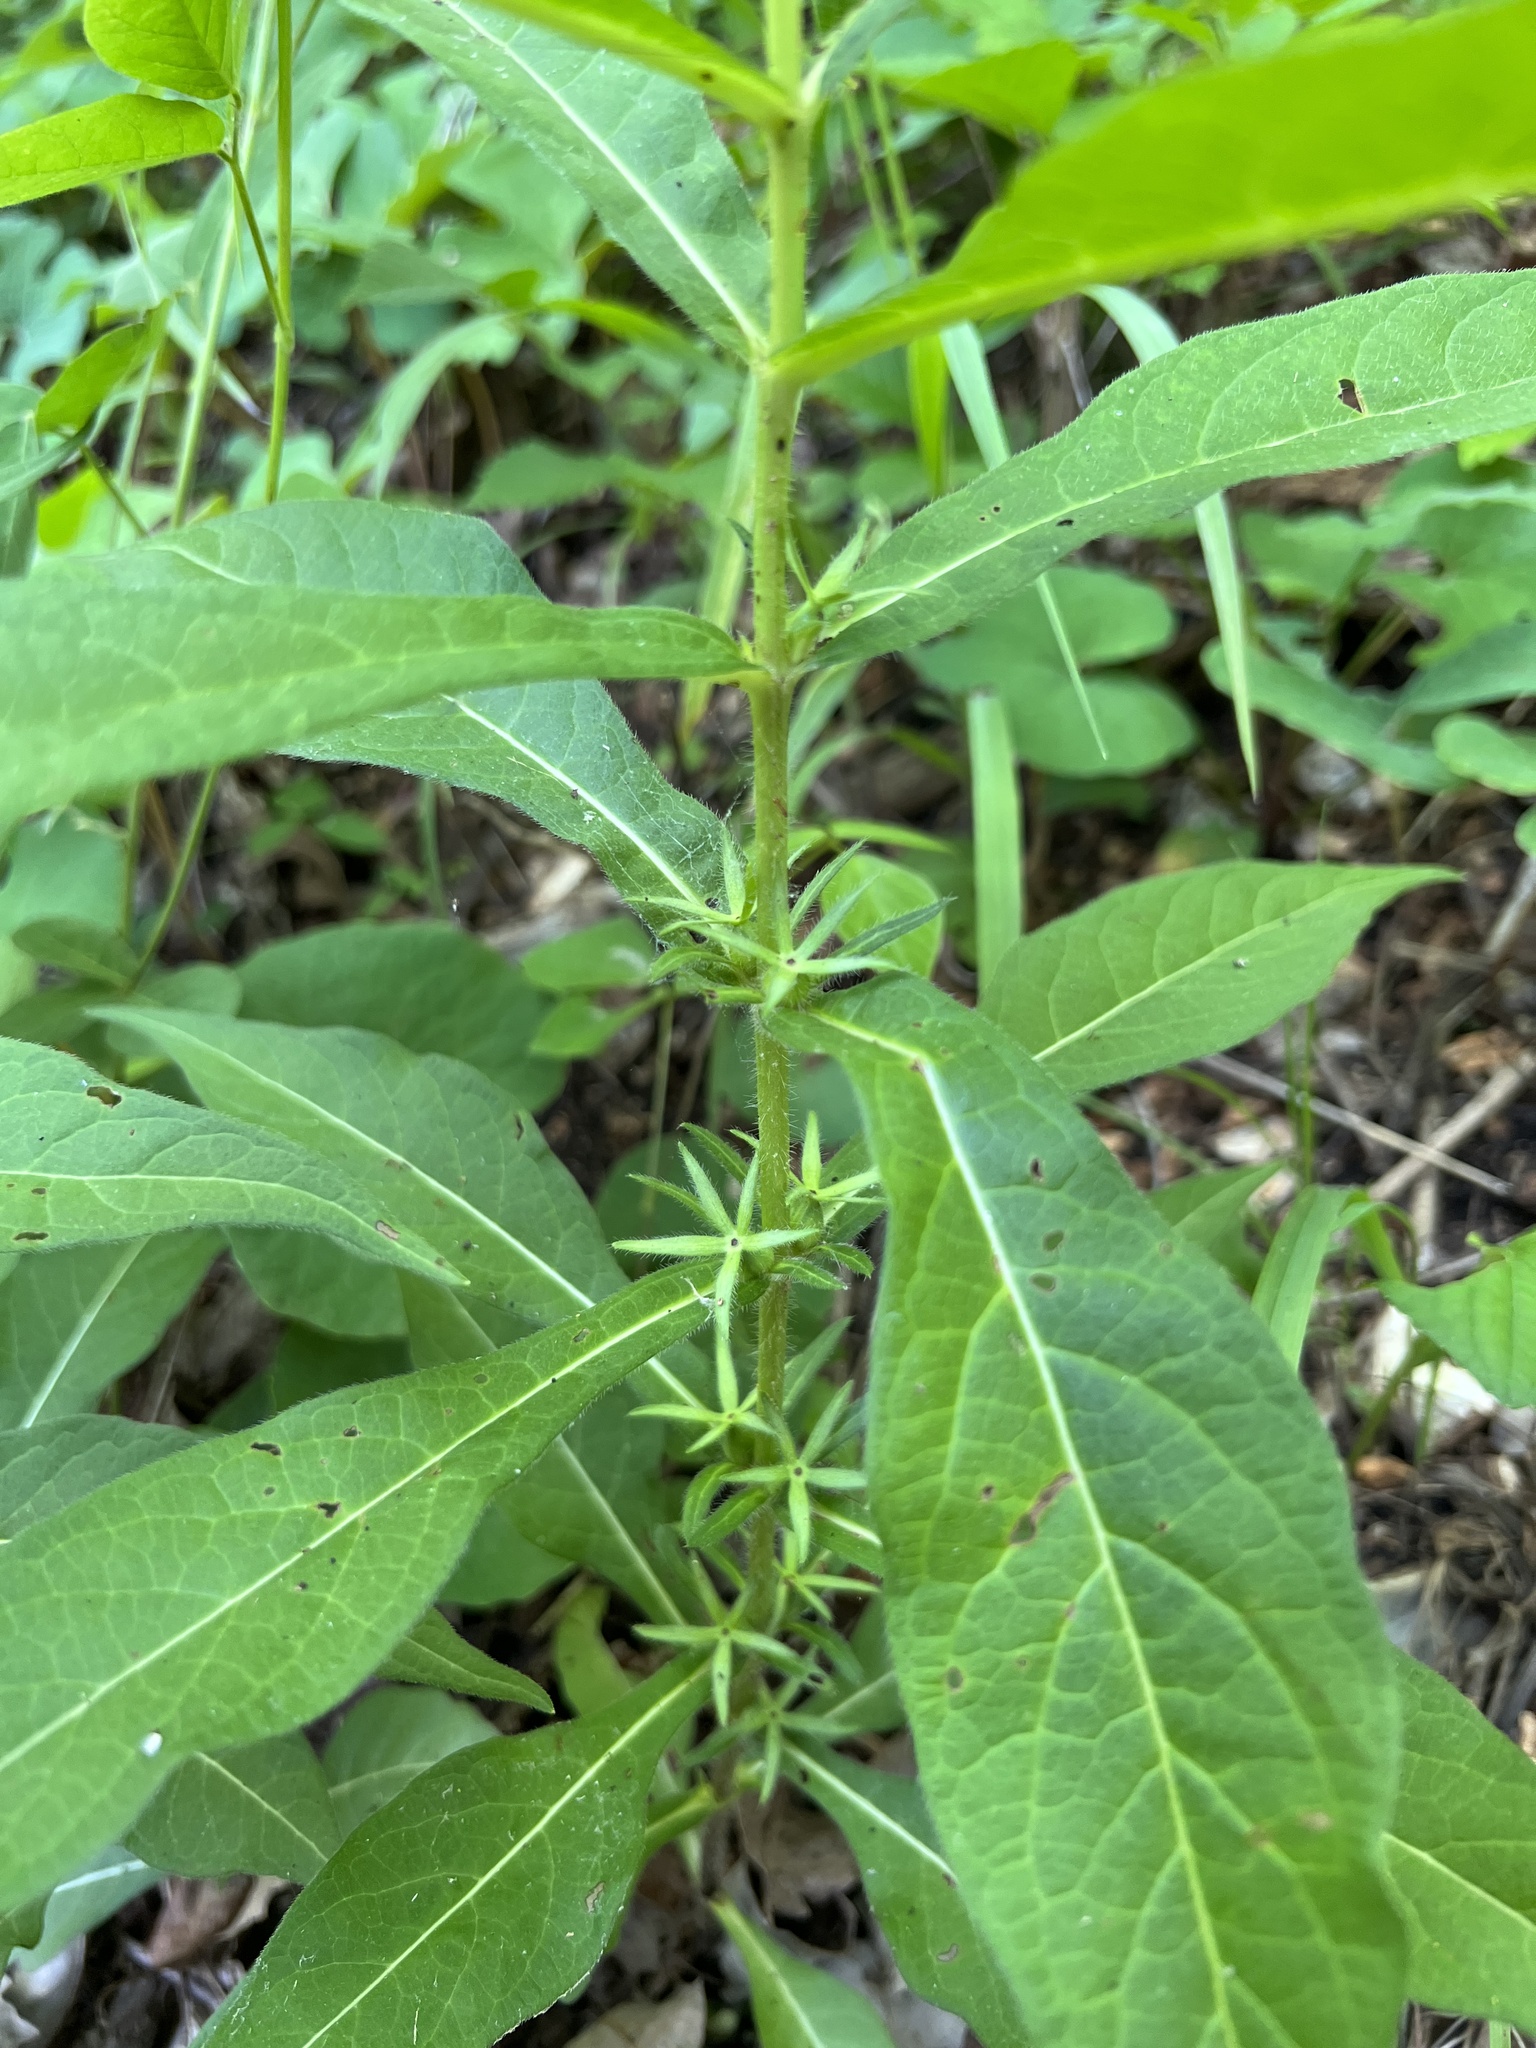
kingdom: Plantae
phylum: Tracheophyta
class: Magnoliopsida
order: Dipsacales
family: Caprifoliaceae
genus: Triosteum
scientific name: Triosteum angustifolium
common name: Narrow-leaved horse-gentian
